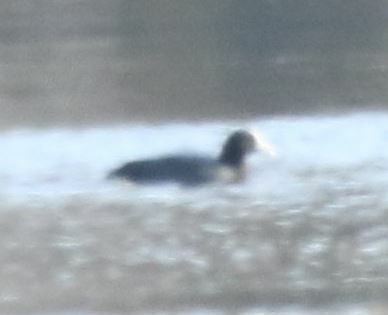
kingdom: Animalia
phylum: Chordata
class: Aves
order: Gruiformes
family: Rallidae
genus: Fulica
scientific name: Fulica atra
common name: Eurasian coot
